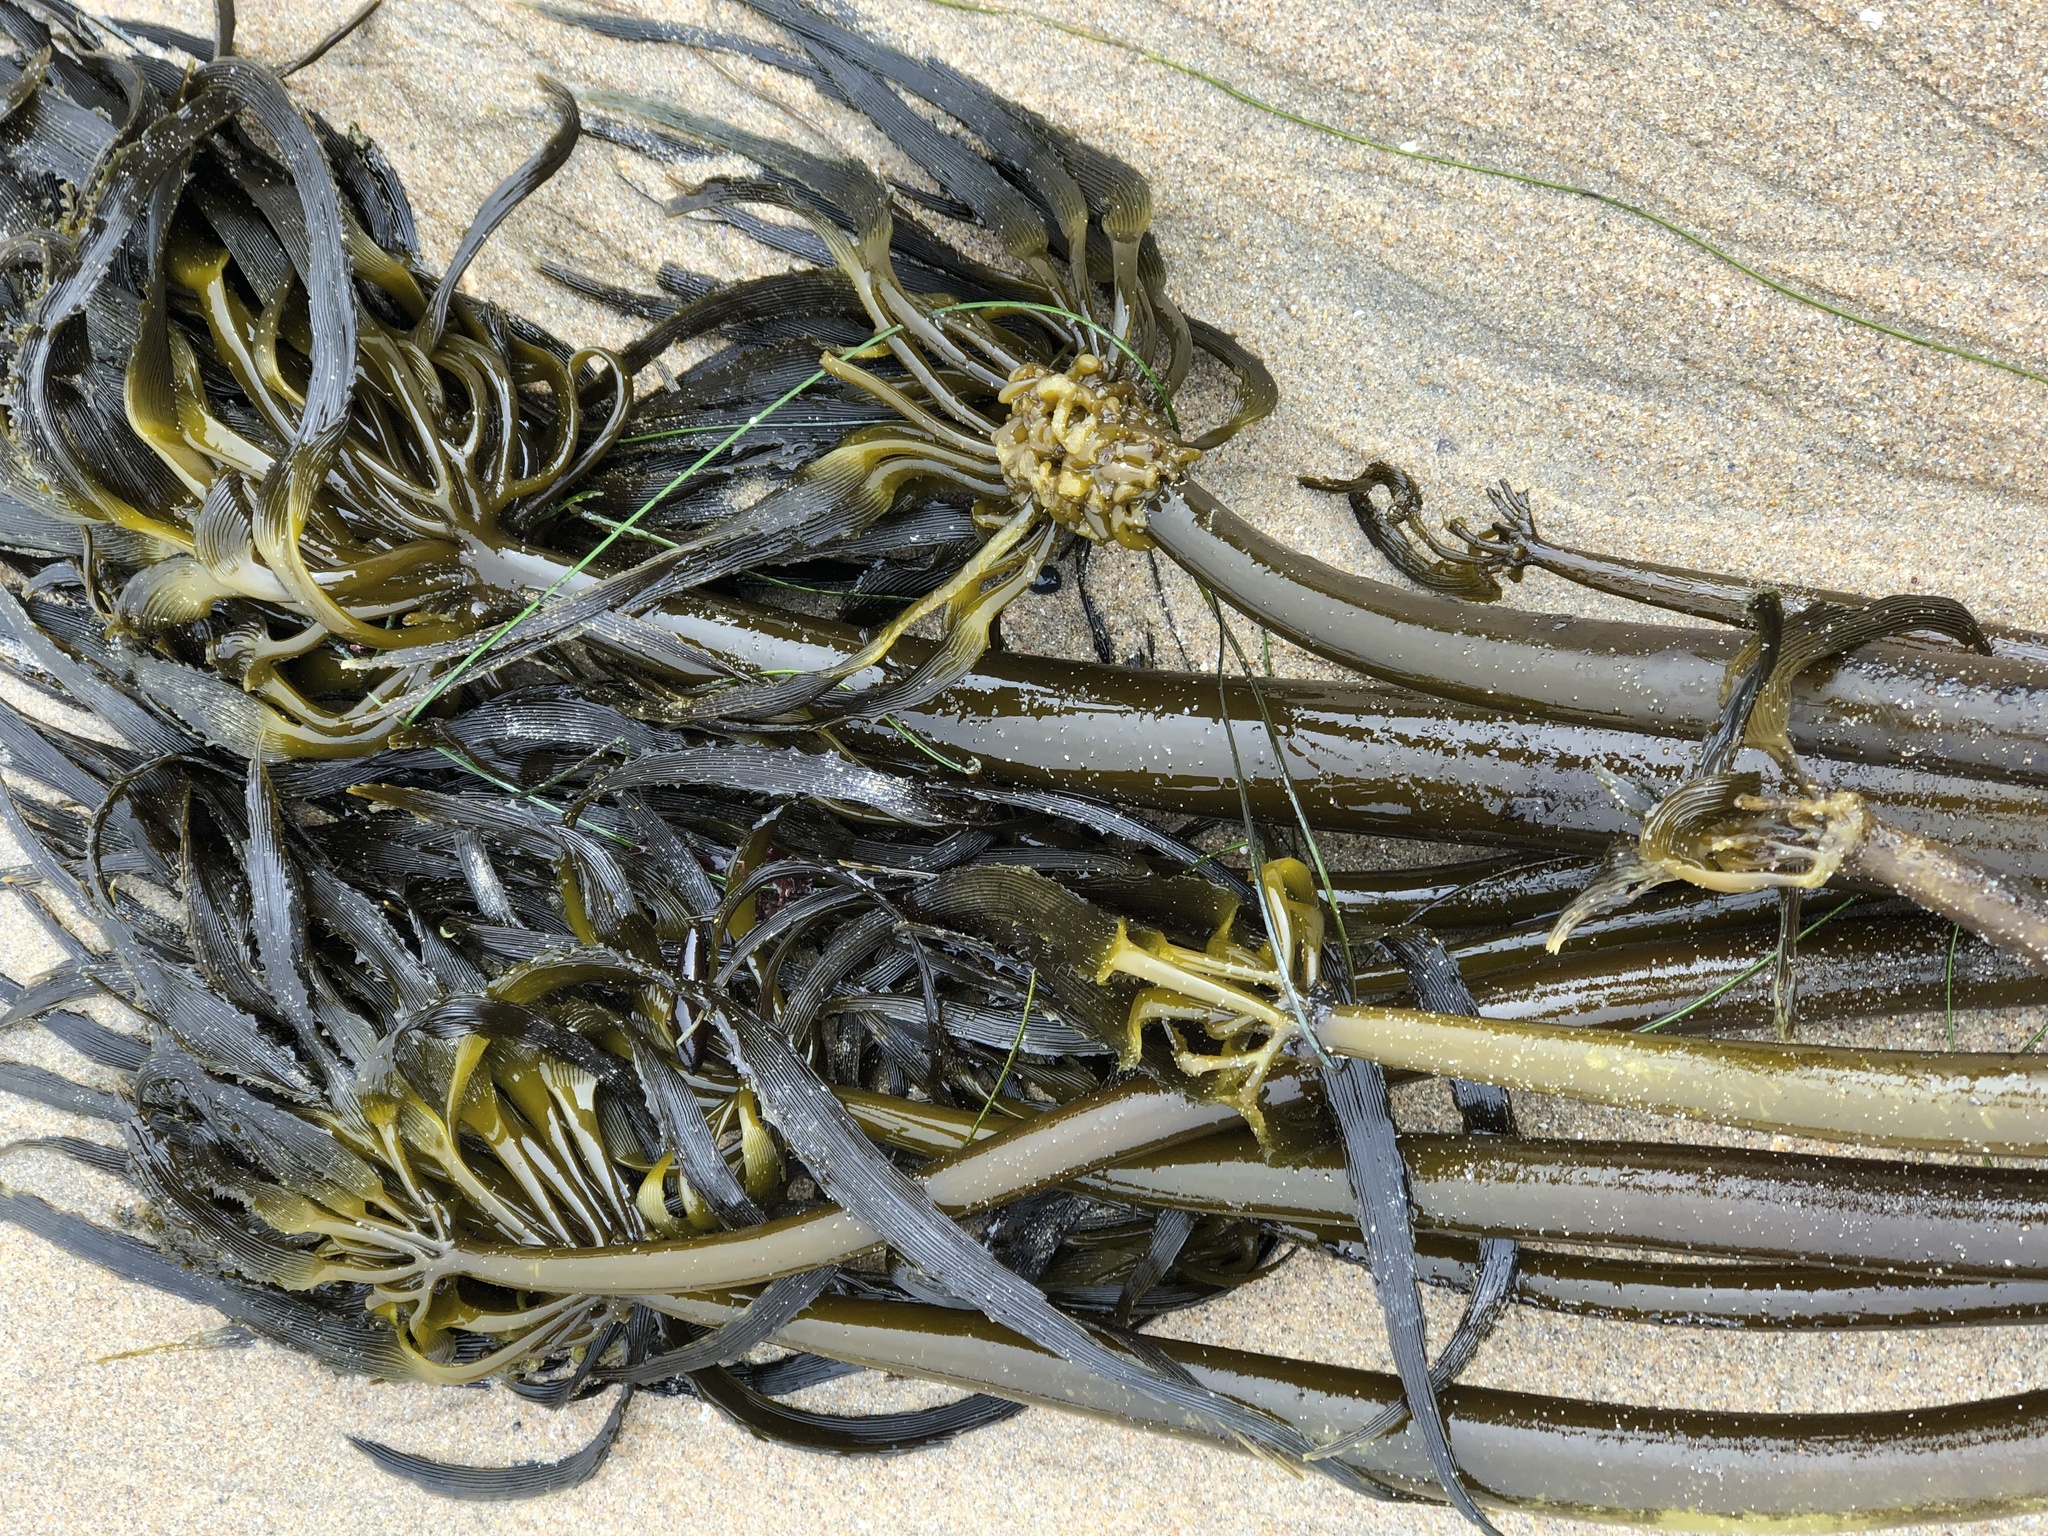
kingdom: Chromista
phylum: Ochrophyta
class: Phaeophyceae
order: Laminariales
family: Laminariaceae
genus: Postelsia
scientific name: Postelsia palmiformis
